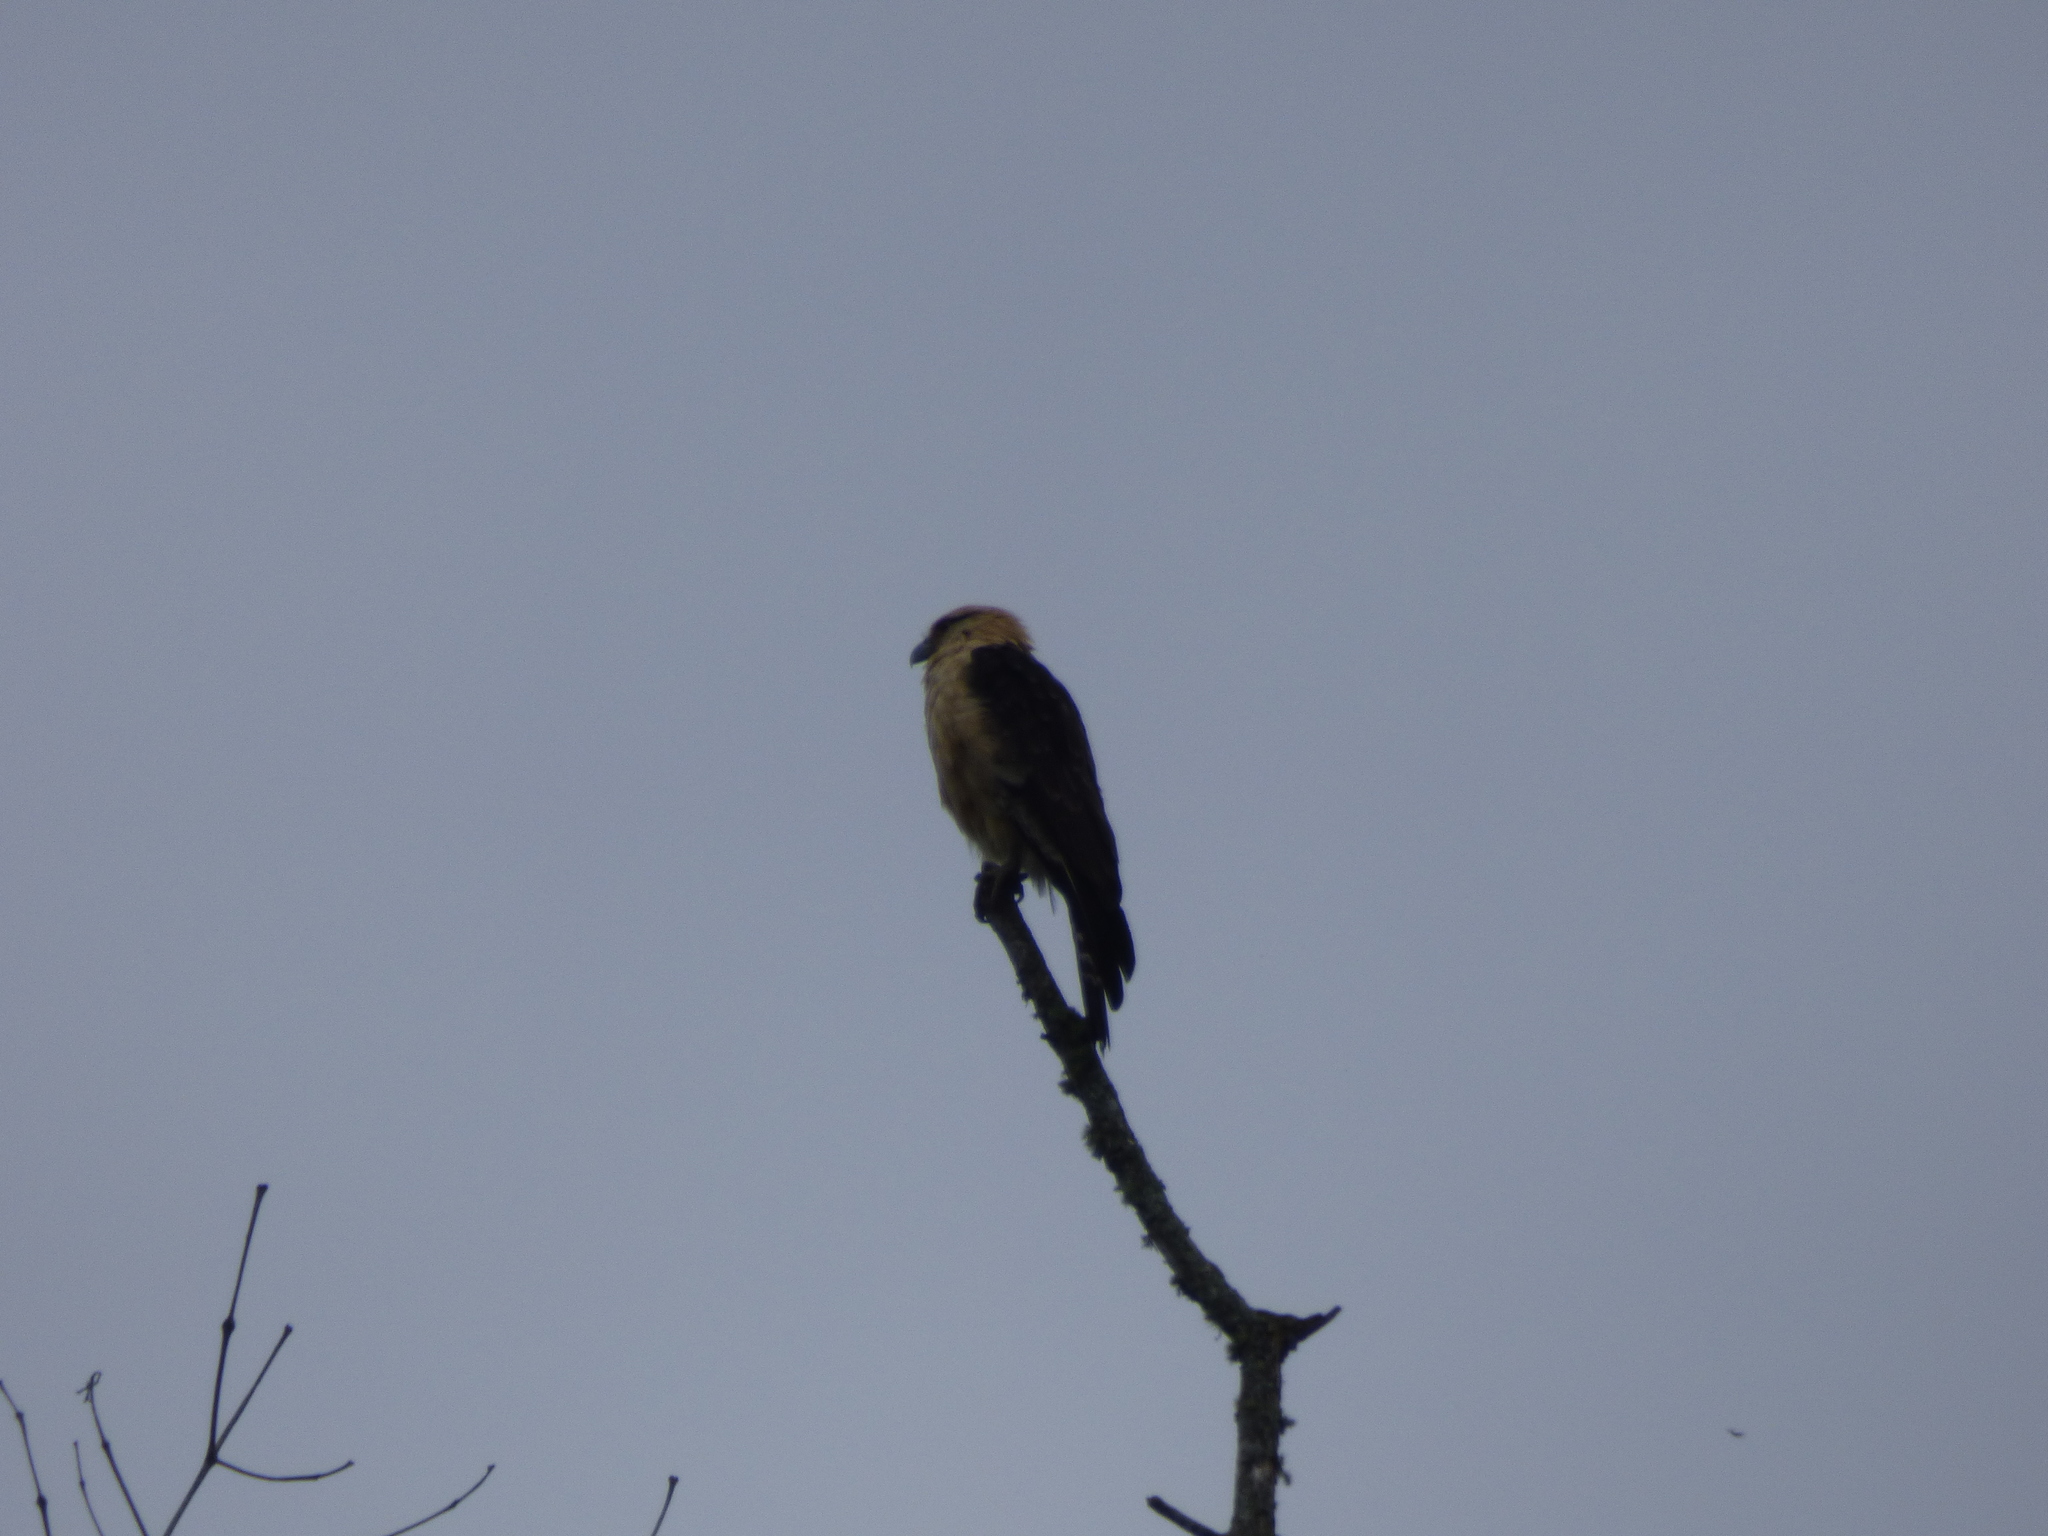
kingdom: Animalia
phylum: Chordata
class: Aves
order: Falconiformes
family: Falconidae
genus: Daptrius
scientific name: Daptrius
